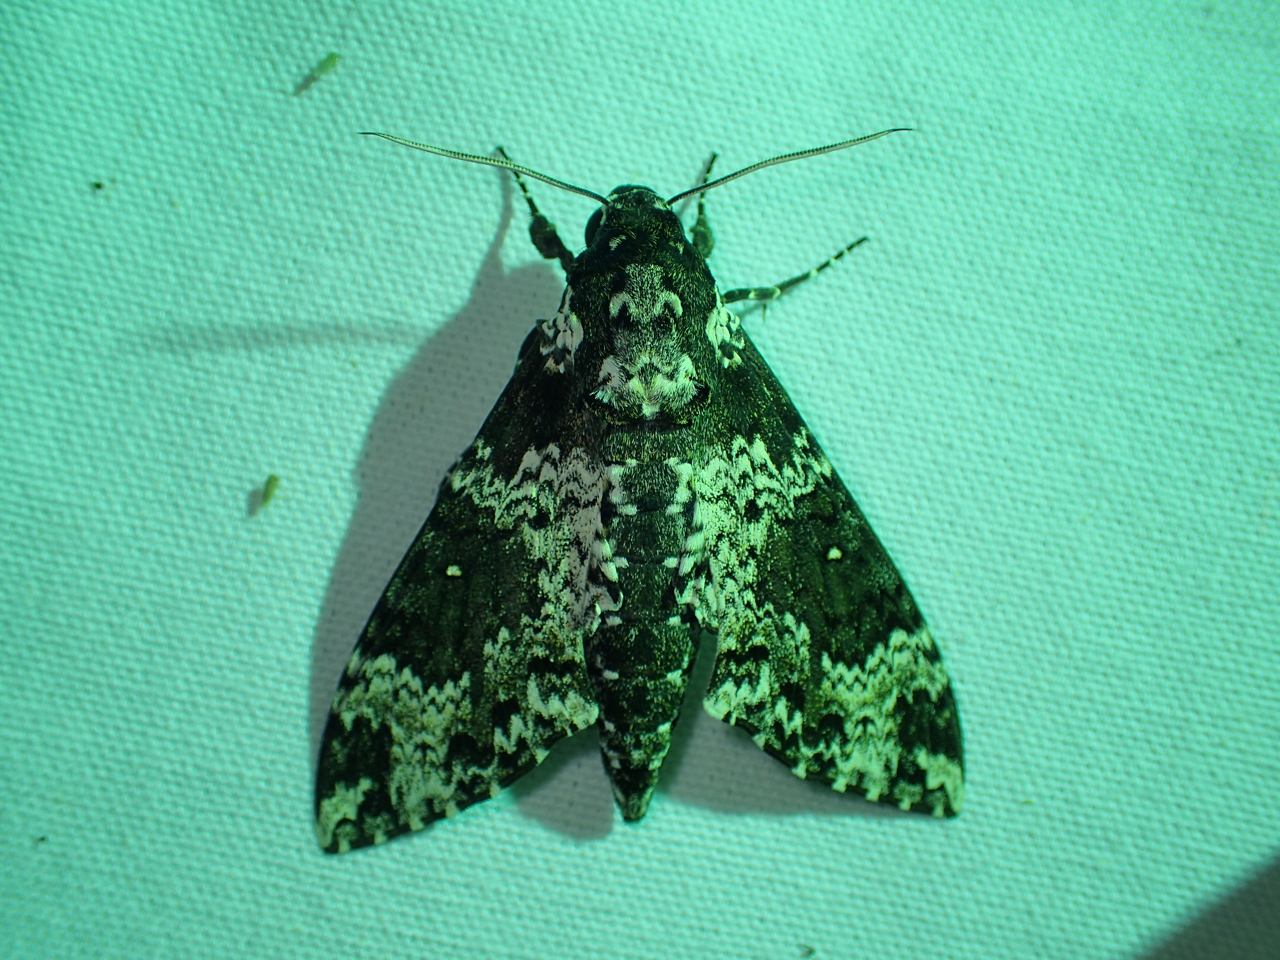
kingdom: Animalia
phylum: Arthropoda
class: Insecta
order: Lepidoptera
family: Sphingidae
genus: Manduca
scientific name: Manduca rustica
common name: Rustic sphinx
